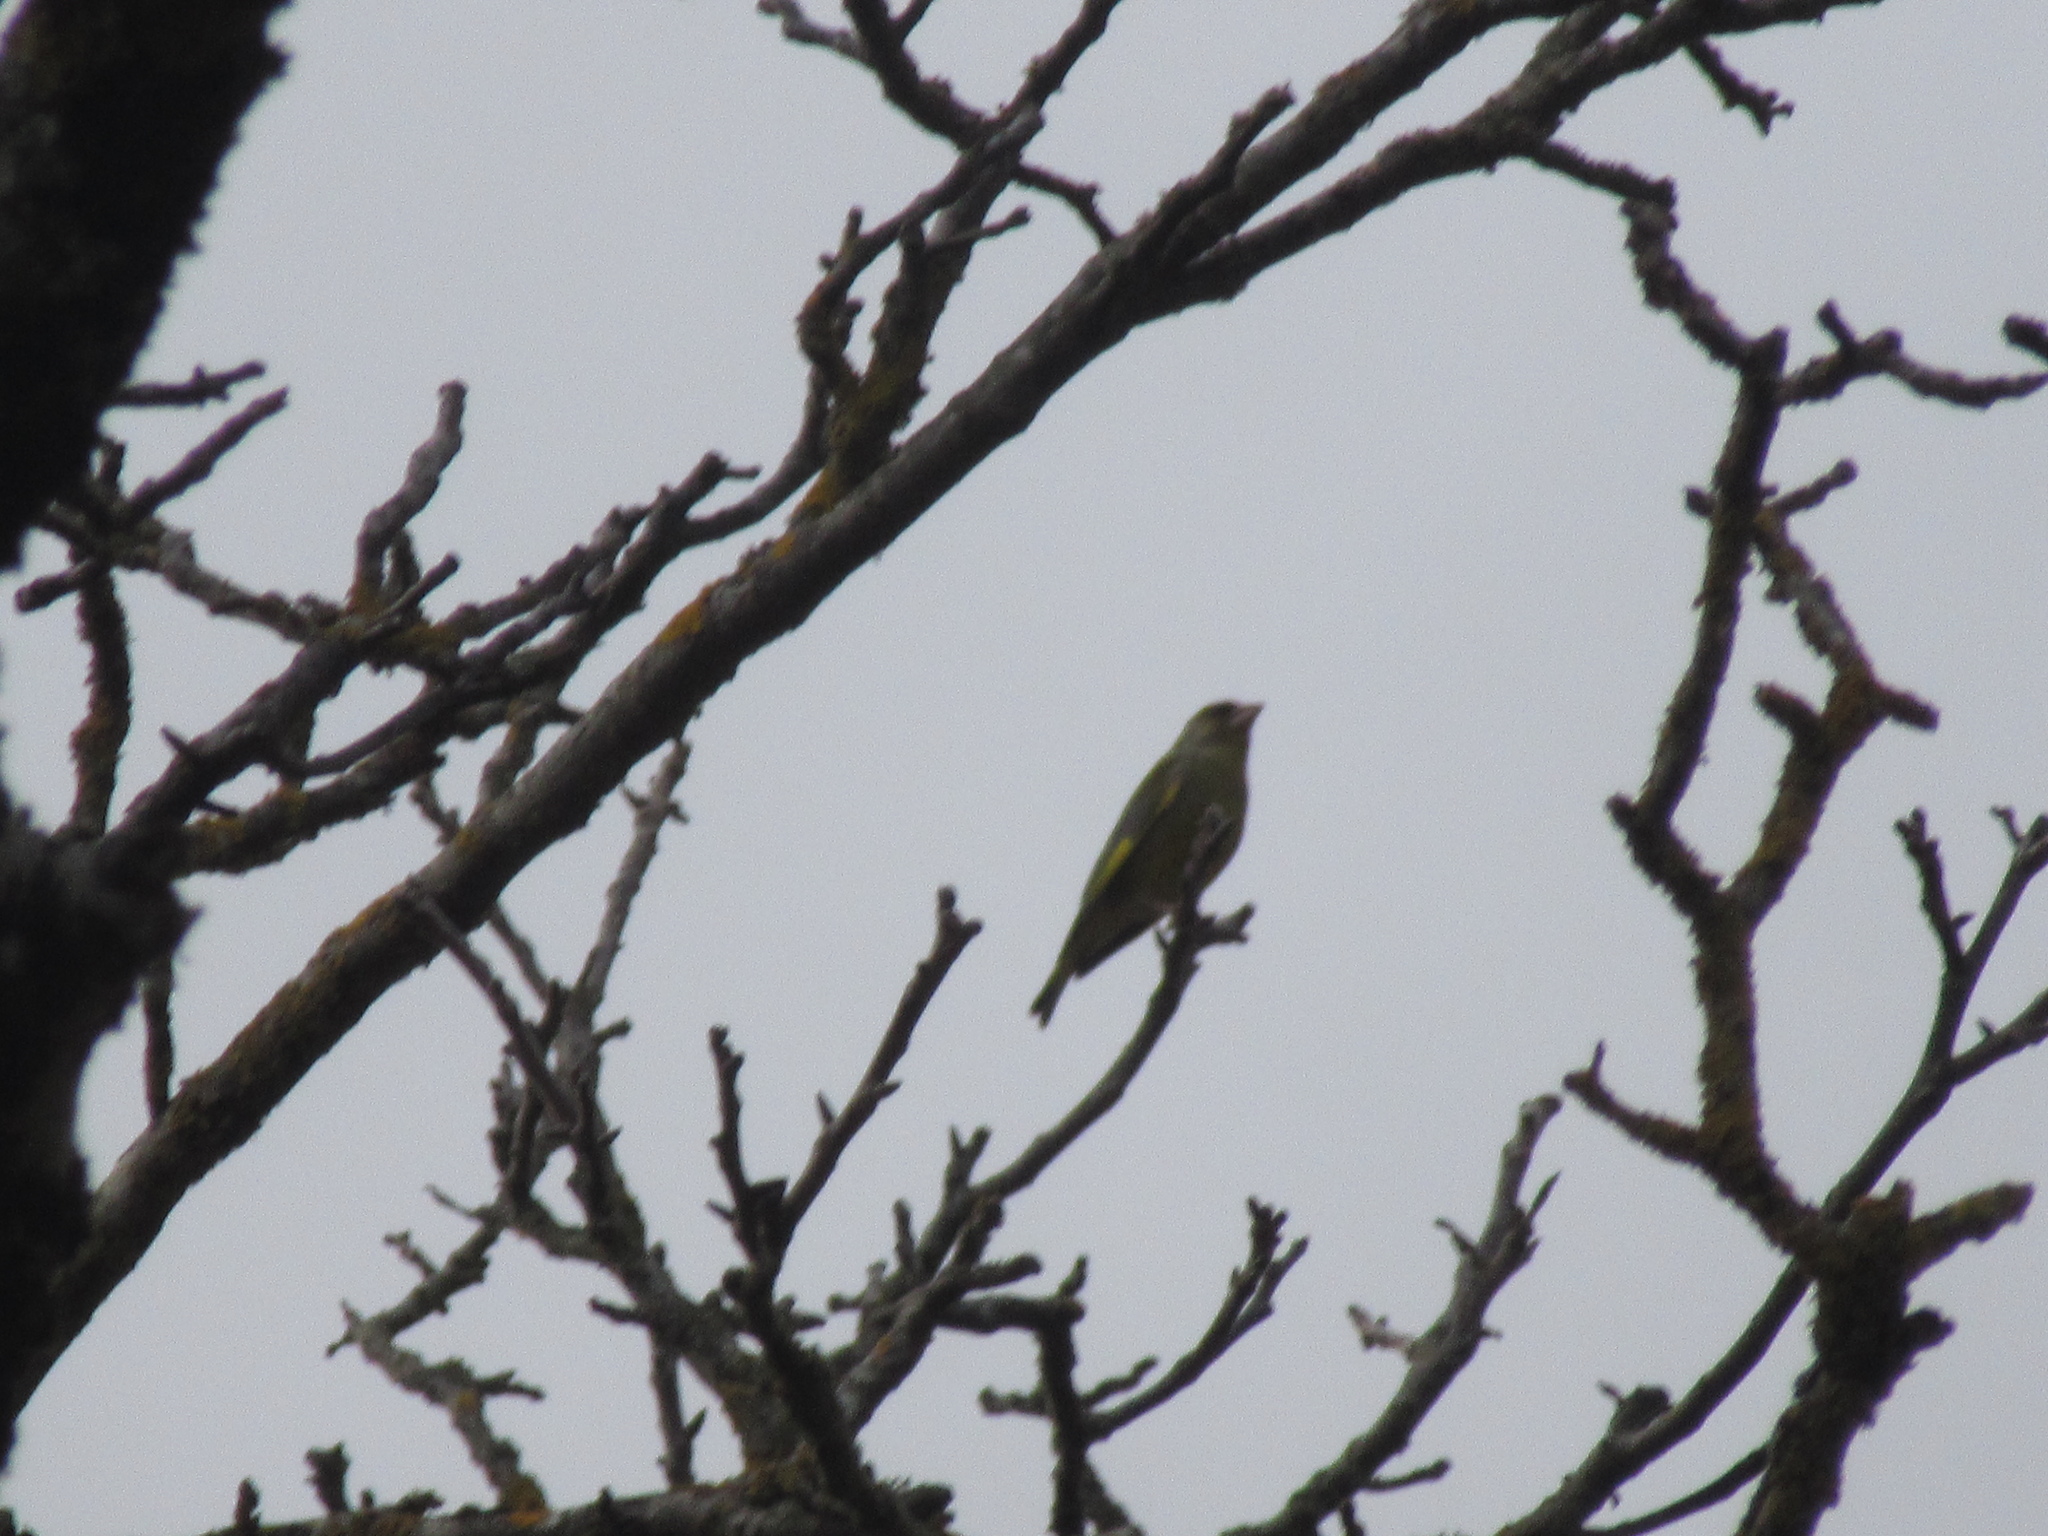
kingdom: Plantae
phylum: Tracheophyta
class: Liliopsida
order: Poales
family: Poaceae
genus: Chloris
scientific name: Chloris chloris
